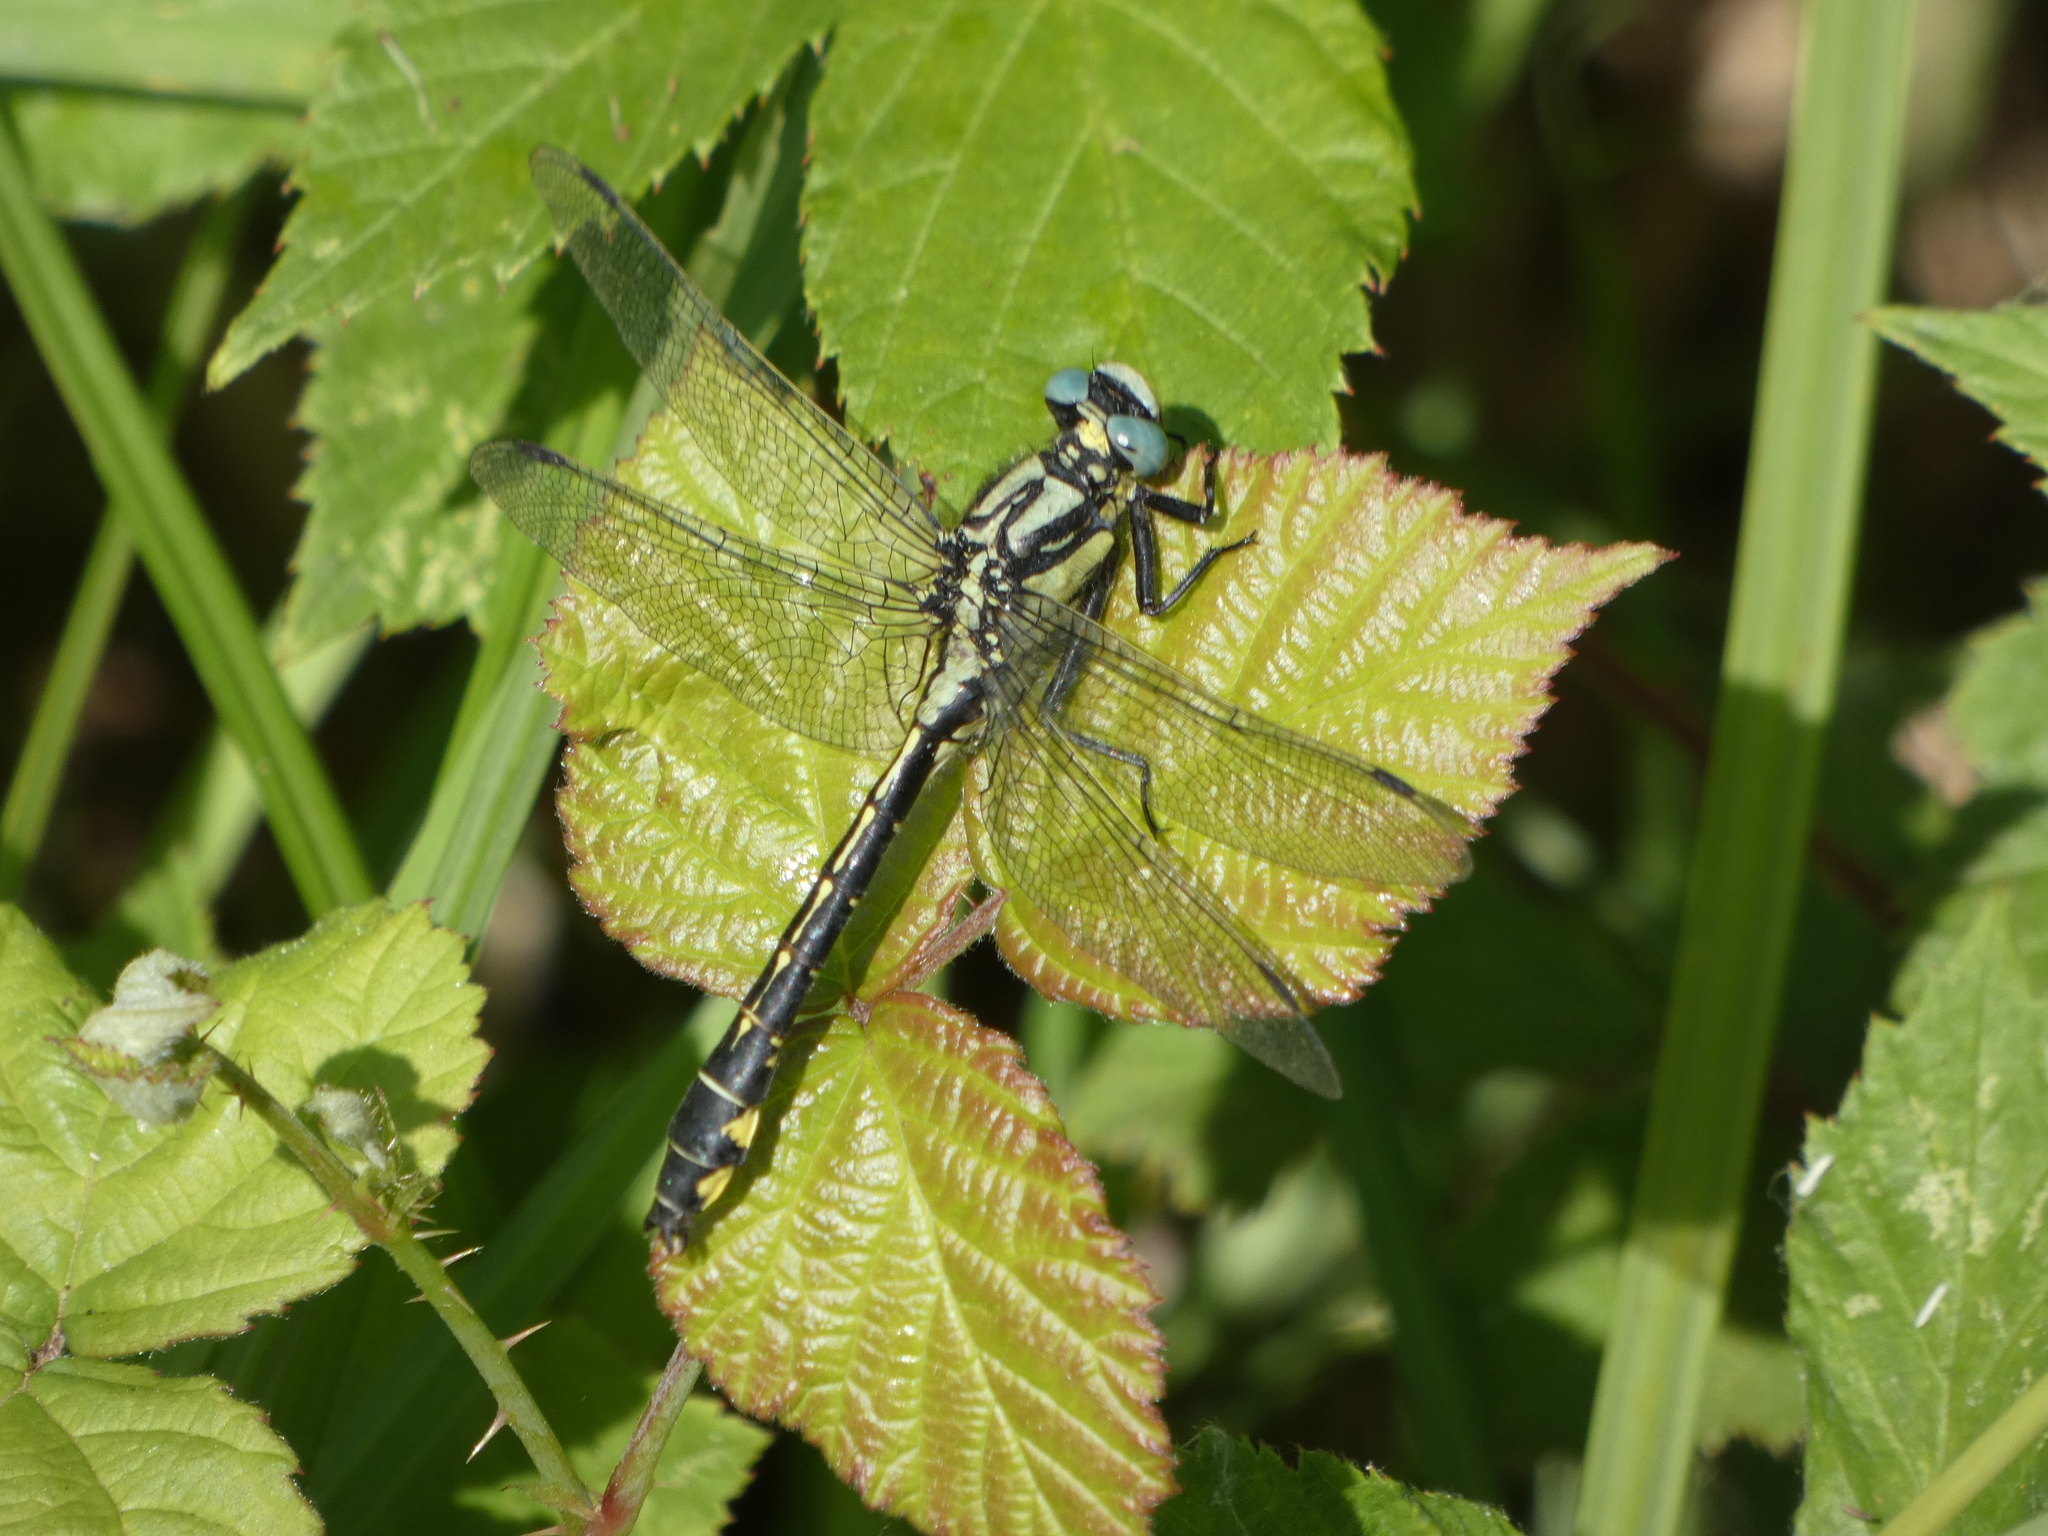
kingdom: Animalia
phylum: Arthropoda
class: Insecta
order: Odonata
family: Gomphidae
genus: Gomphus
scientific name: Gomphus vulgatissimus
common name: Club-tailed dragonfly
